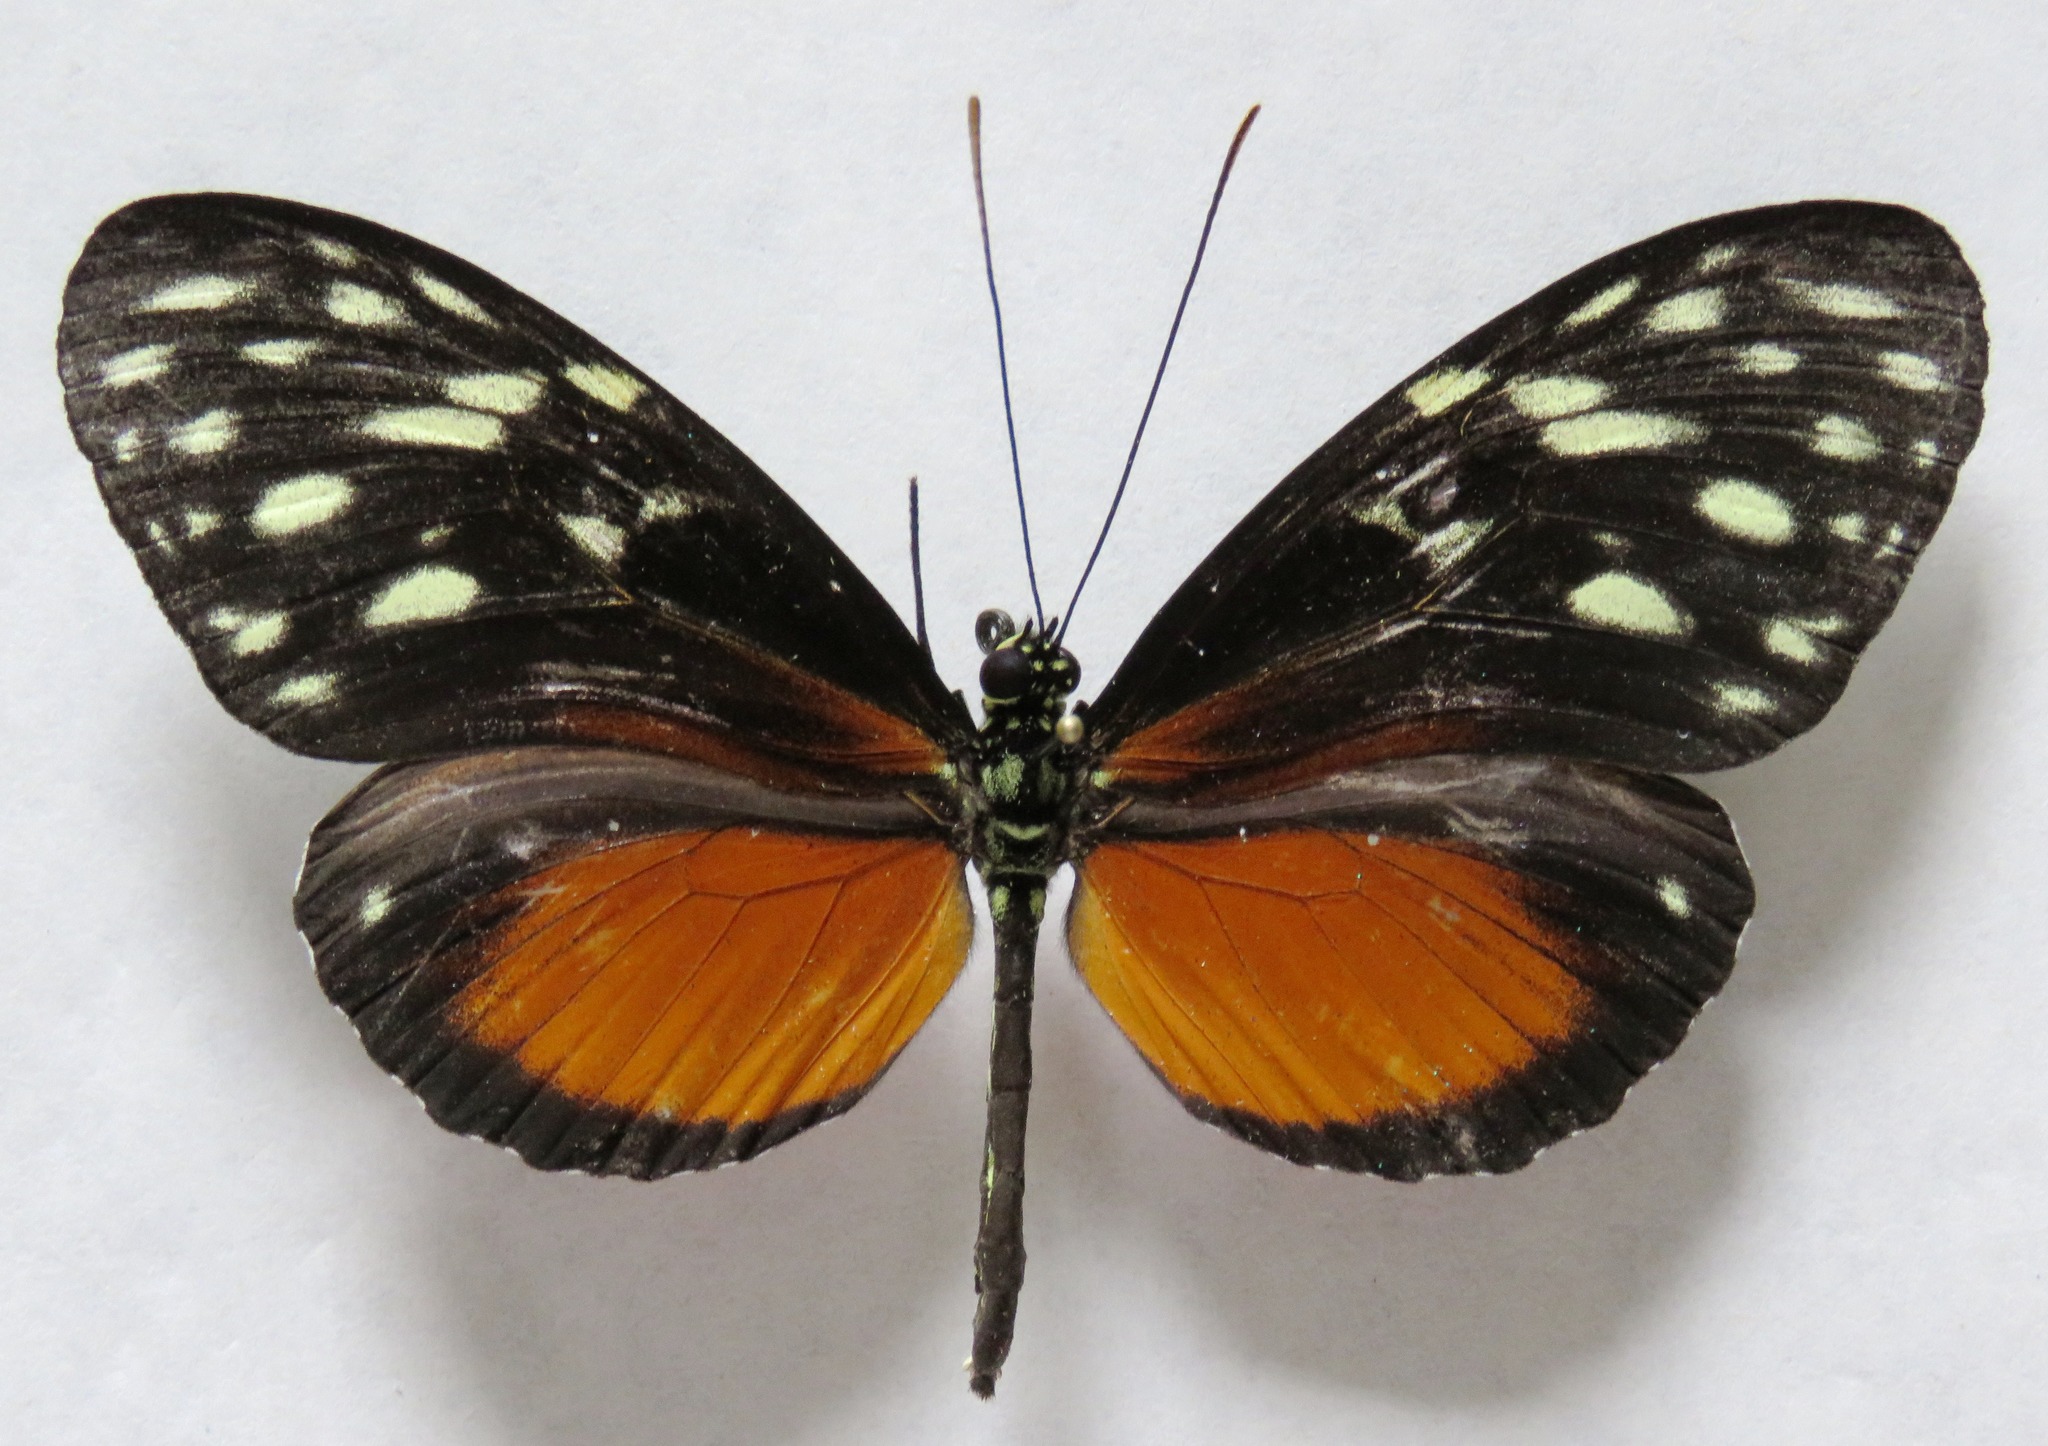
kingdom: Animalia
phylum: Arthropoda
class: Insecta
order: Lepidoptera
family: Nymphalidae
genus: Heliconius
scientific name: Heliconius hecale
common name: Tiger longwing
